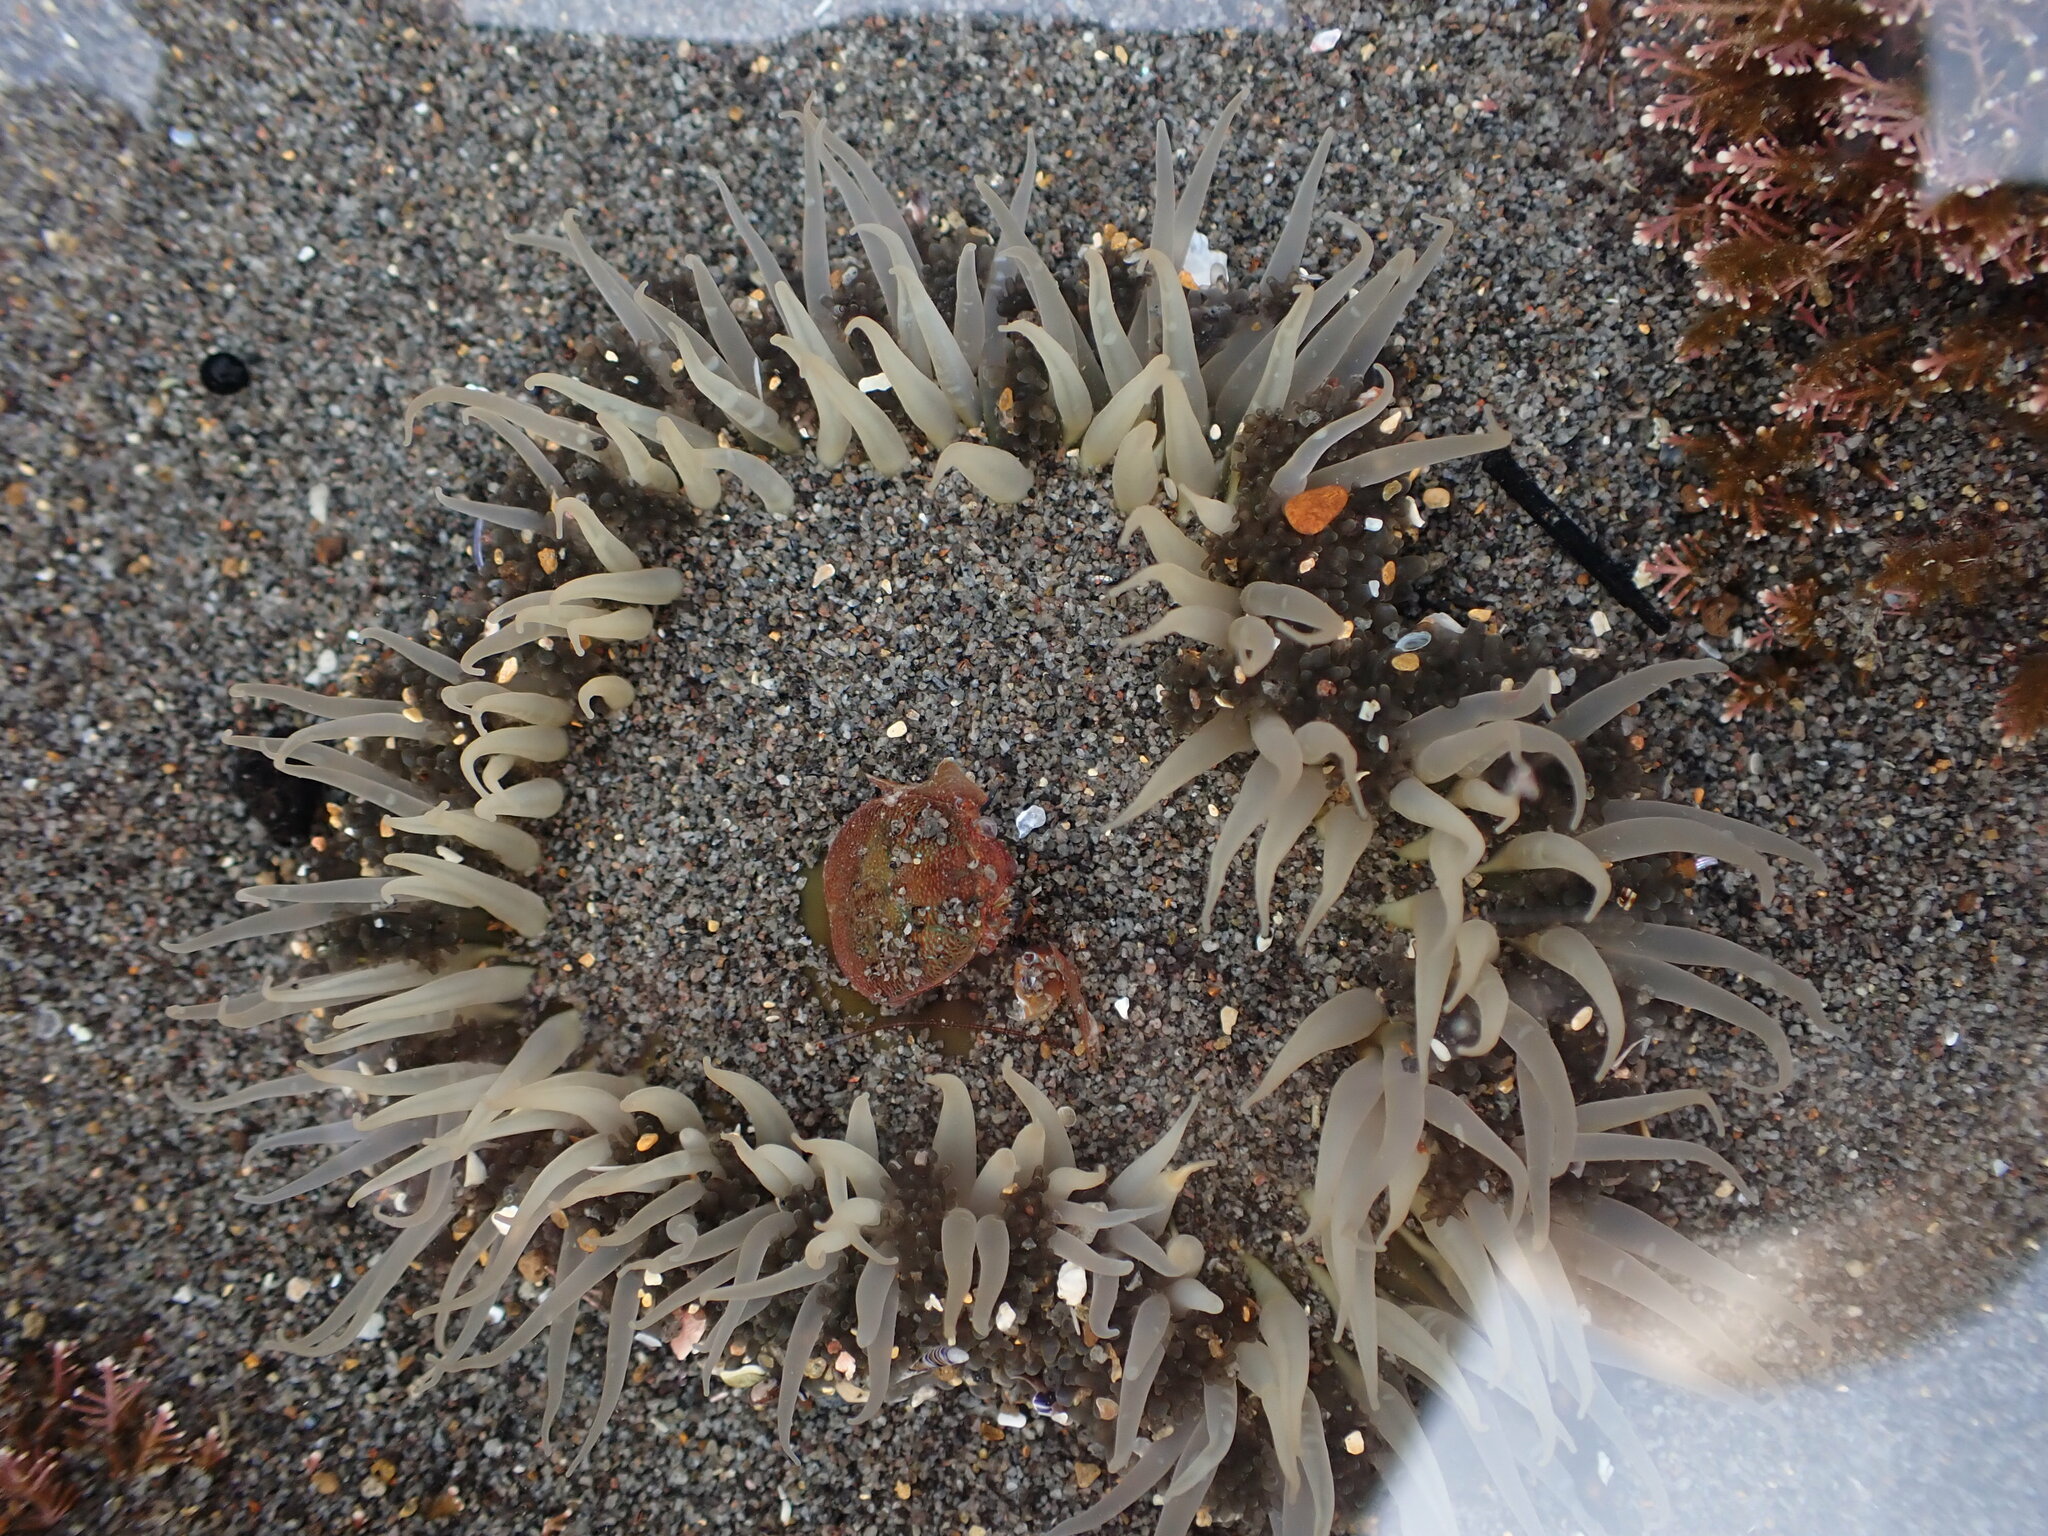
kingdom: Animalia
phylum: Cnidaria
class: Anthozoa
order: Actiniaria
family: Actiniidae
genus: Oulactis
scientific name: Oulactis magna
